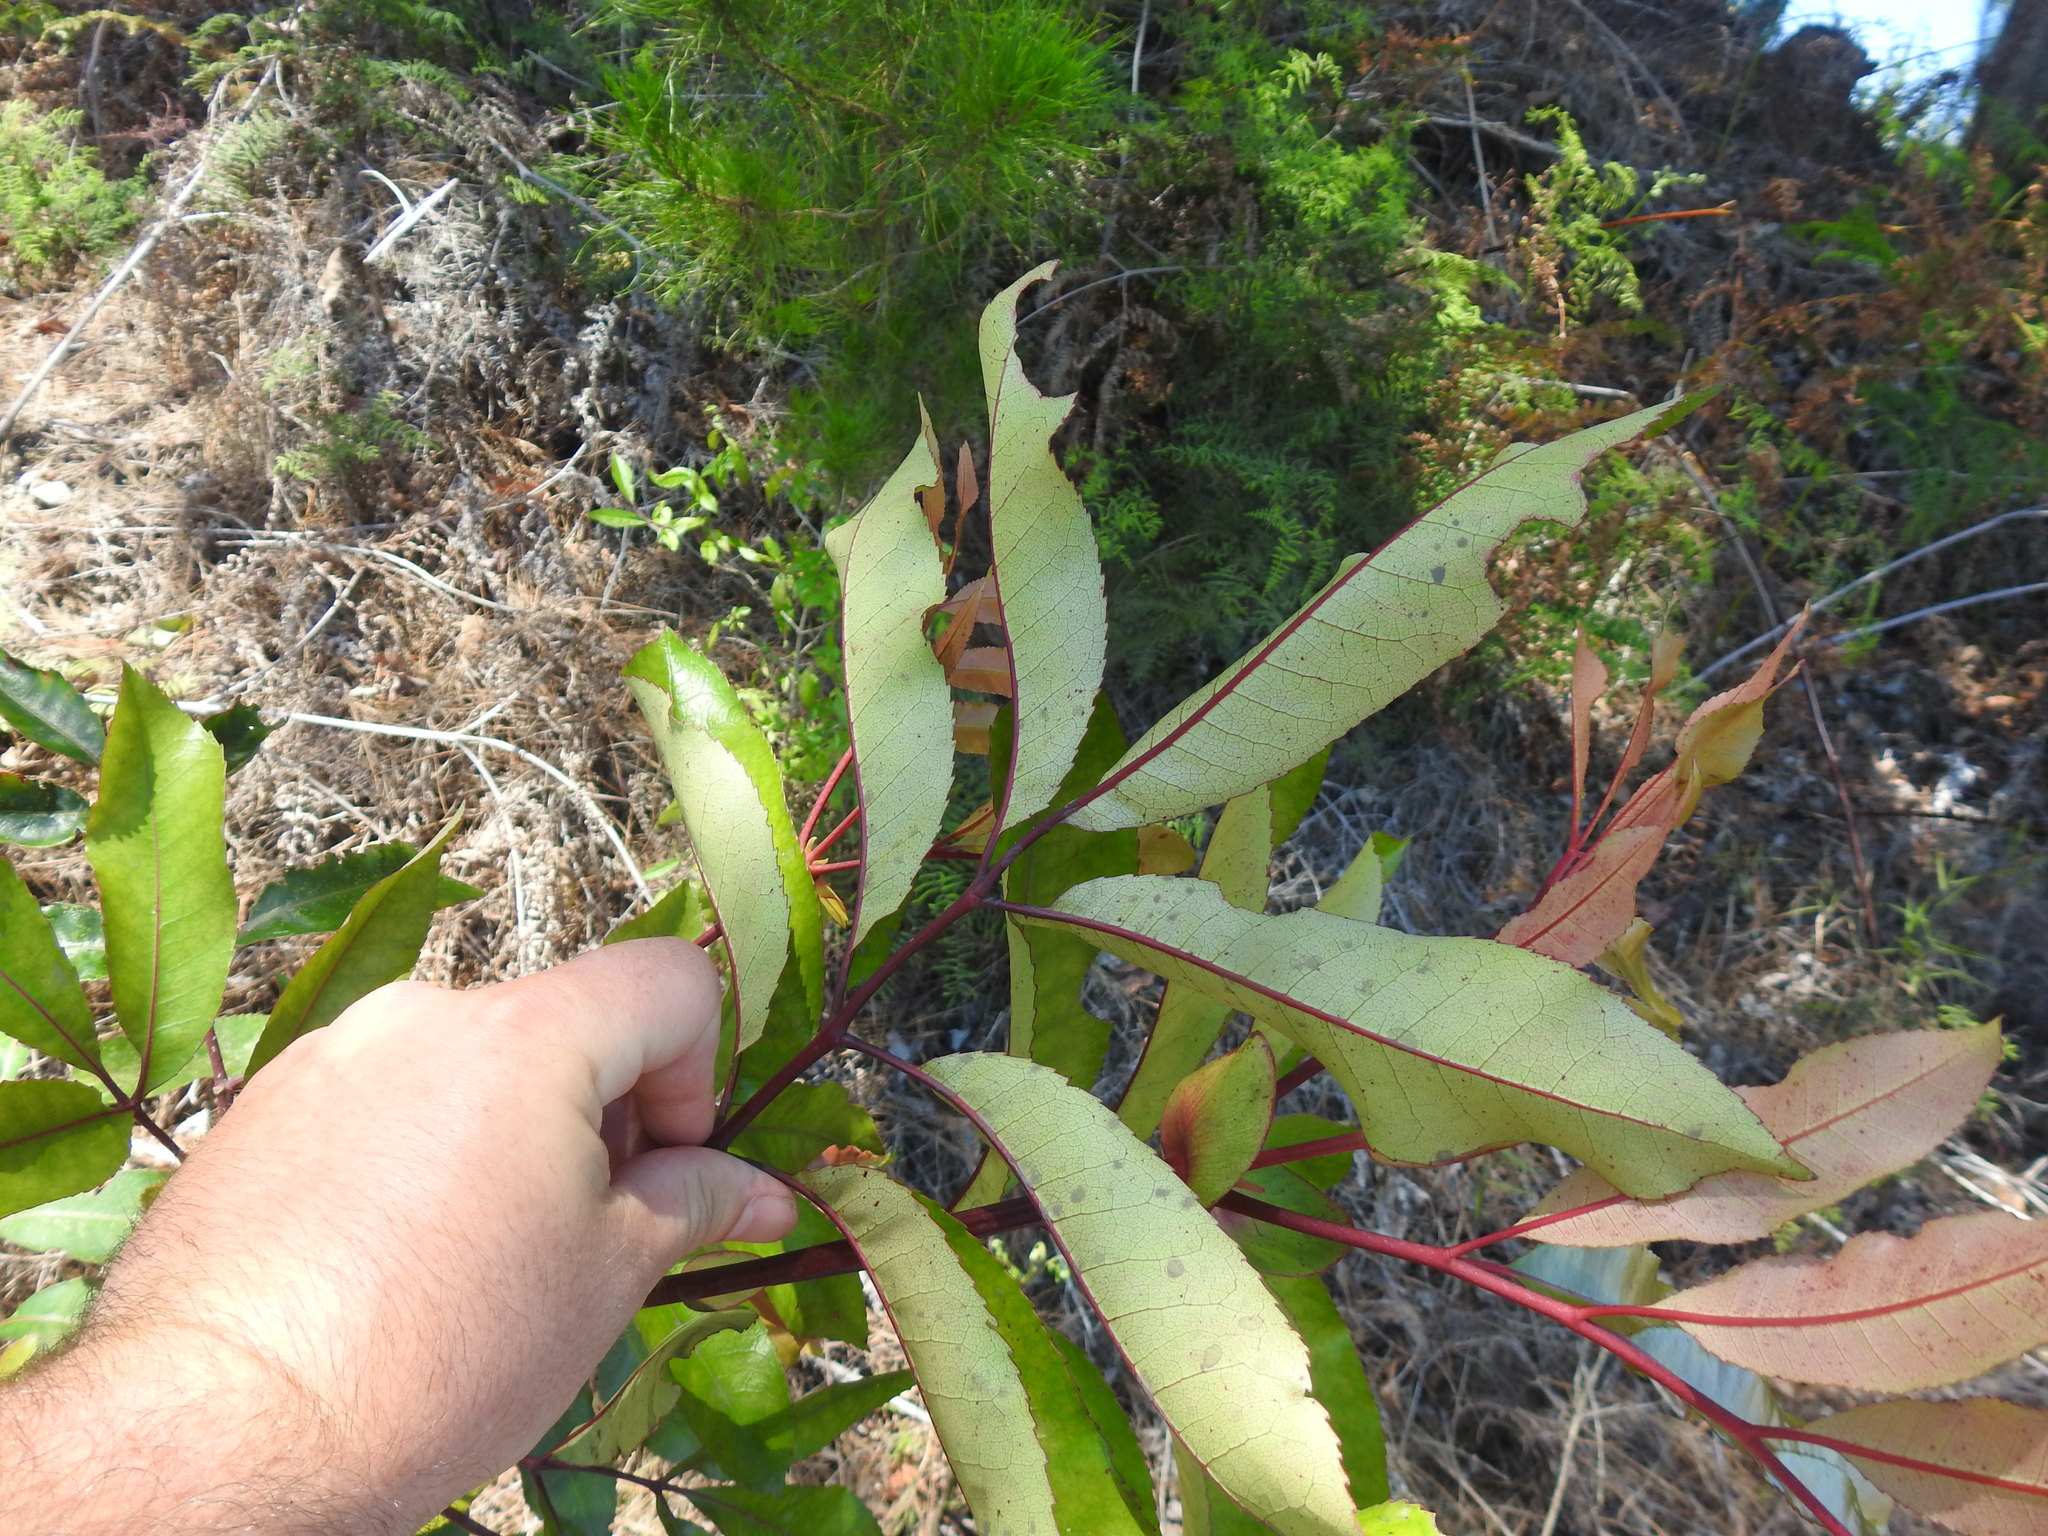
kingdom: Plantae
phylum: Tracheophyta
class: Magnoliopsida
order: Oxalidales
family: Cunoniaceae
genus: Cunonia
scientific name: Cunonia capensis
